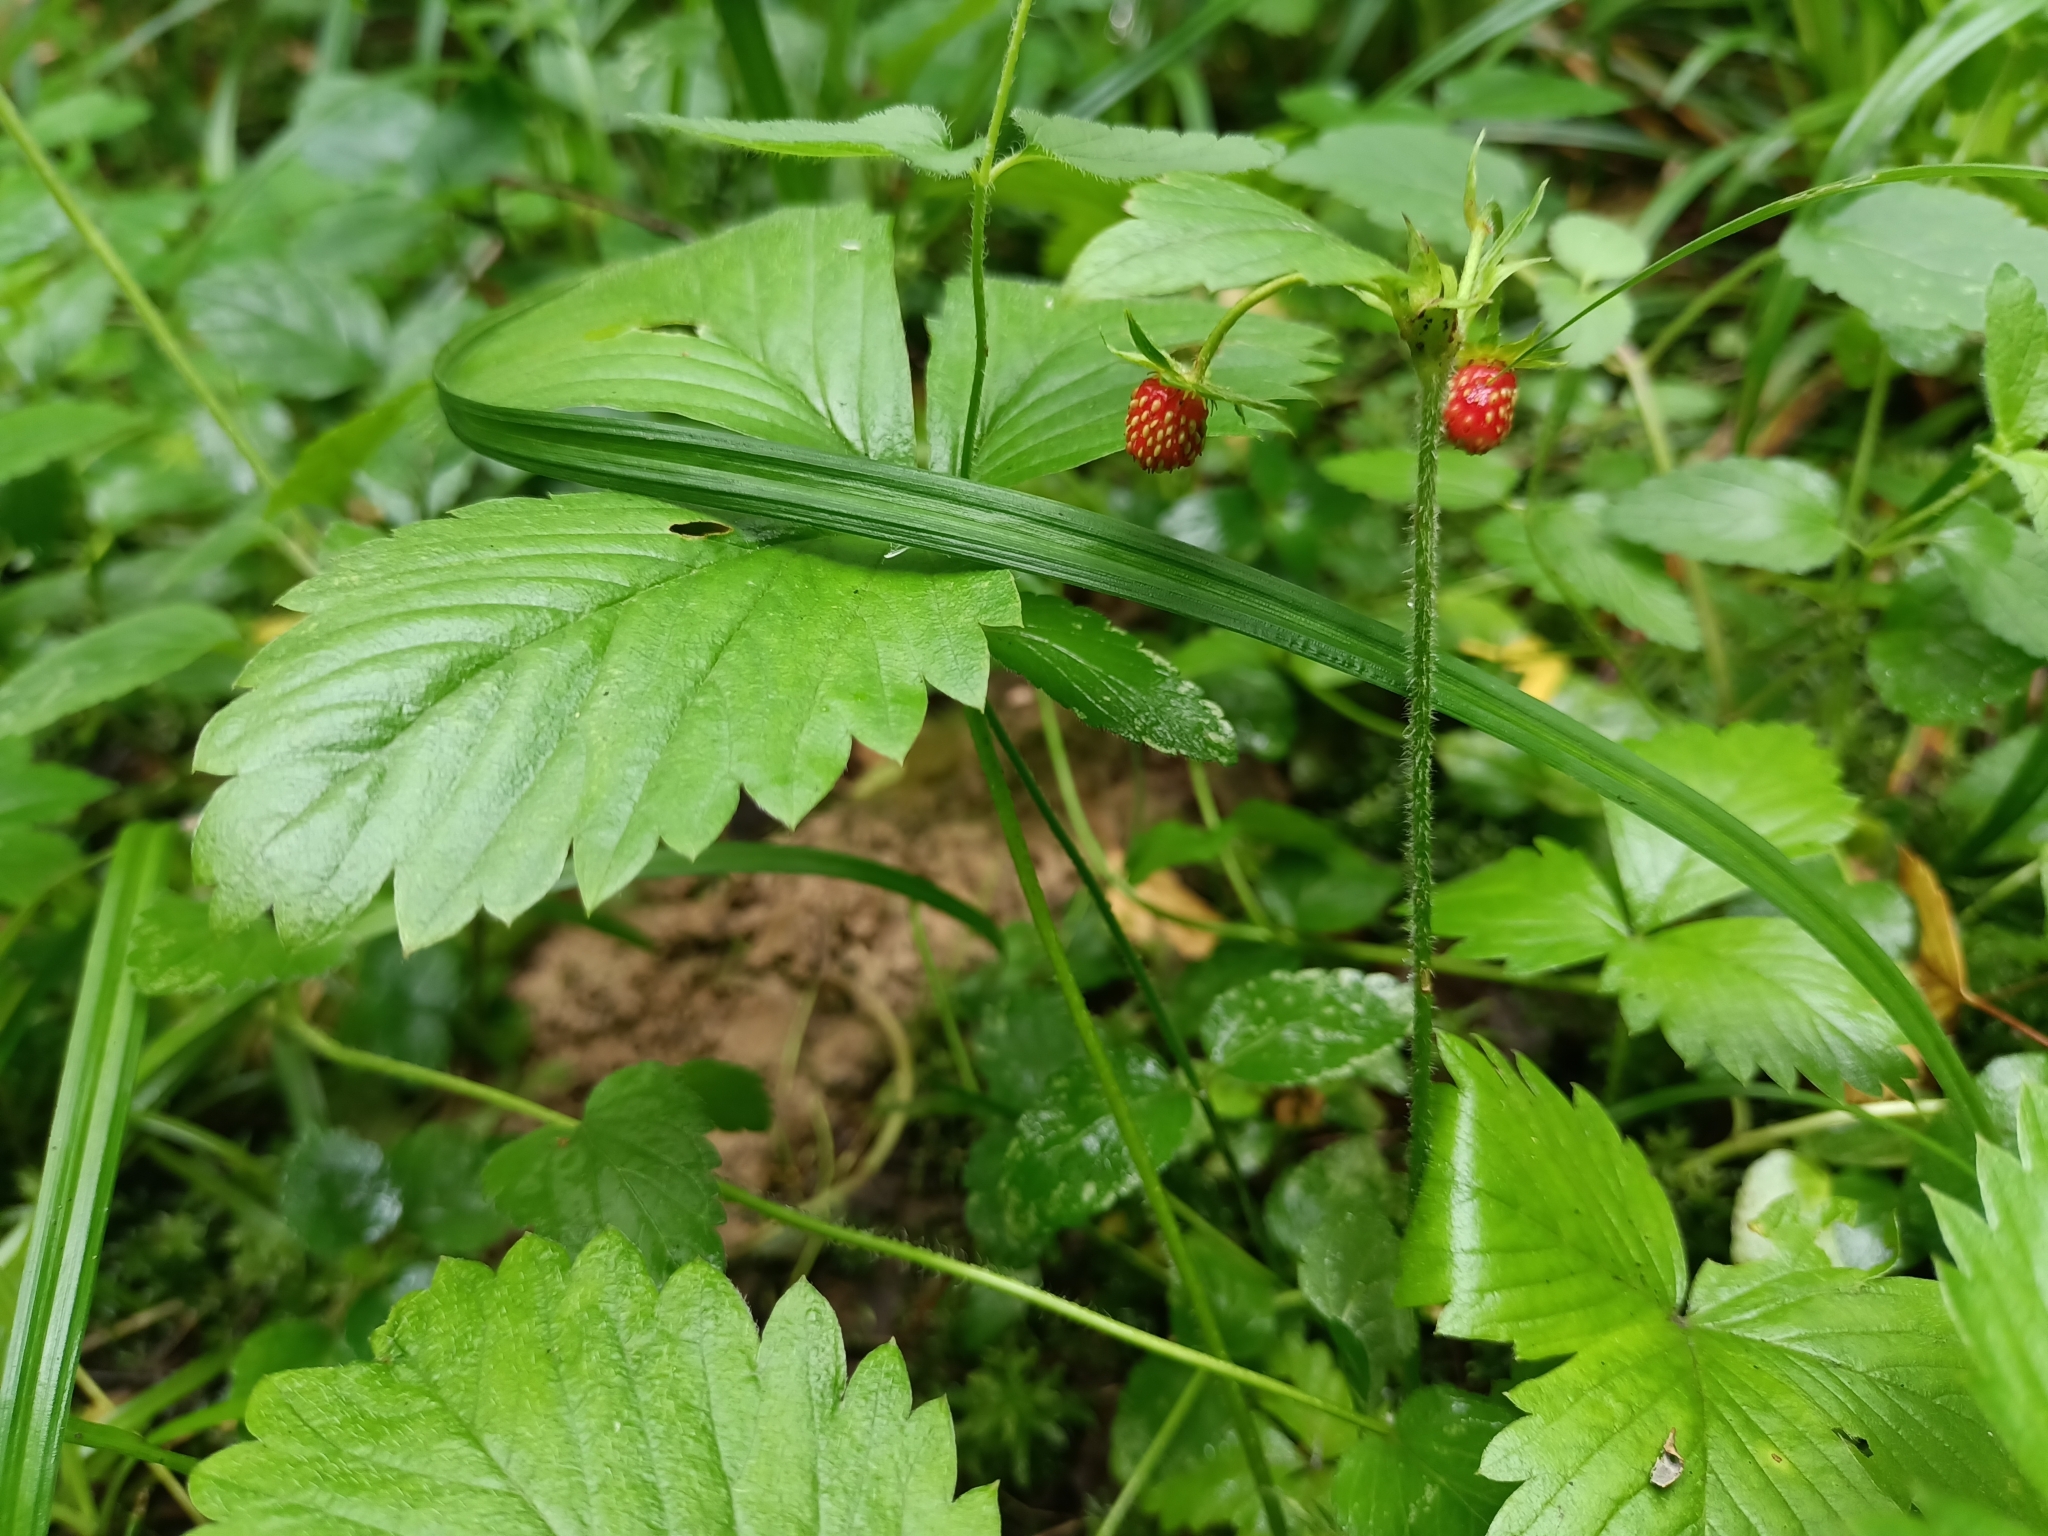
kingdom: Plantae
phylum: Tracheophyta
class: Magnoliopsida
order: Rosales
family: Rosaceae
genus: Fragaria
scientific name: Fragaria vesca
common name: Wild strawberry
